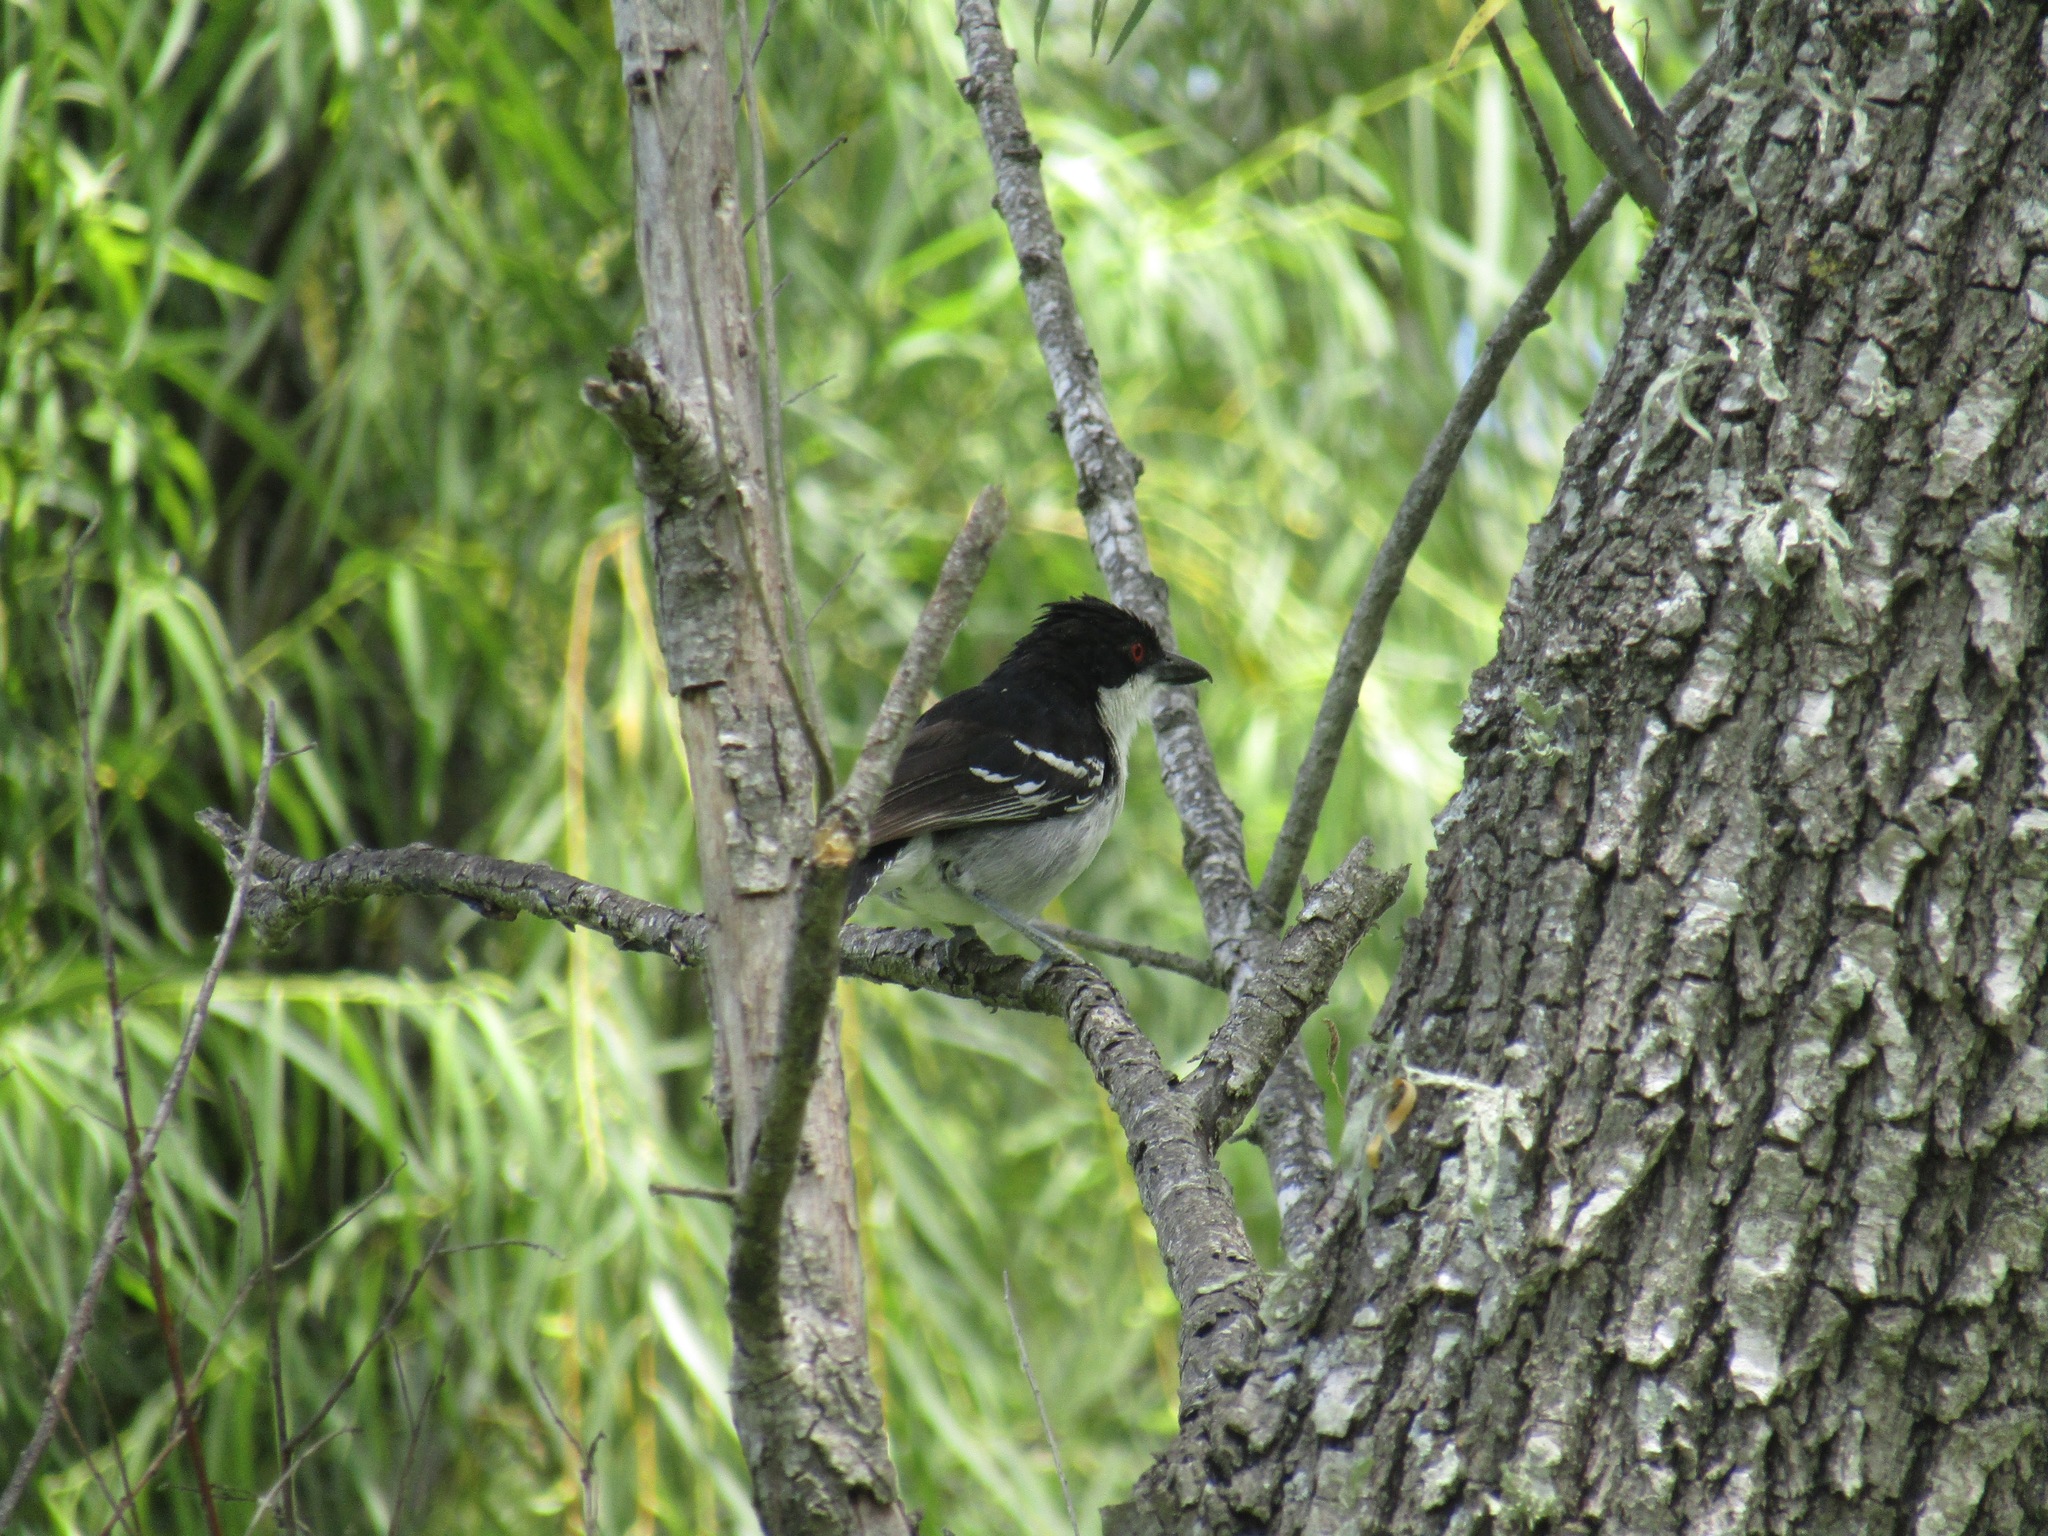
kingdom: Animalia
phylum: Chordata
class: Aves
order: Passeriformes
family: Thamnophilidae
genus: Taraba
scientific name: Taraba major
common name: Great antshrike
